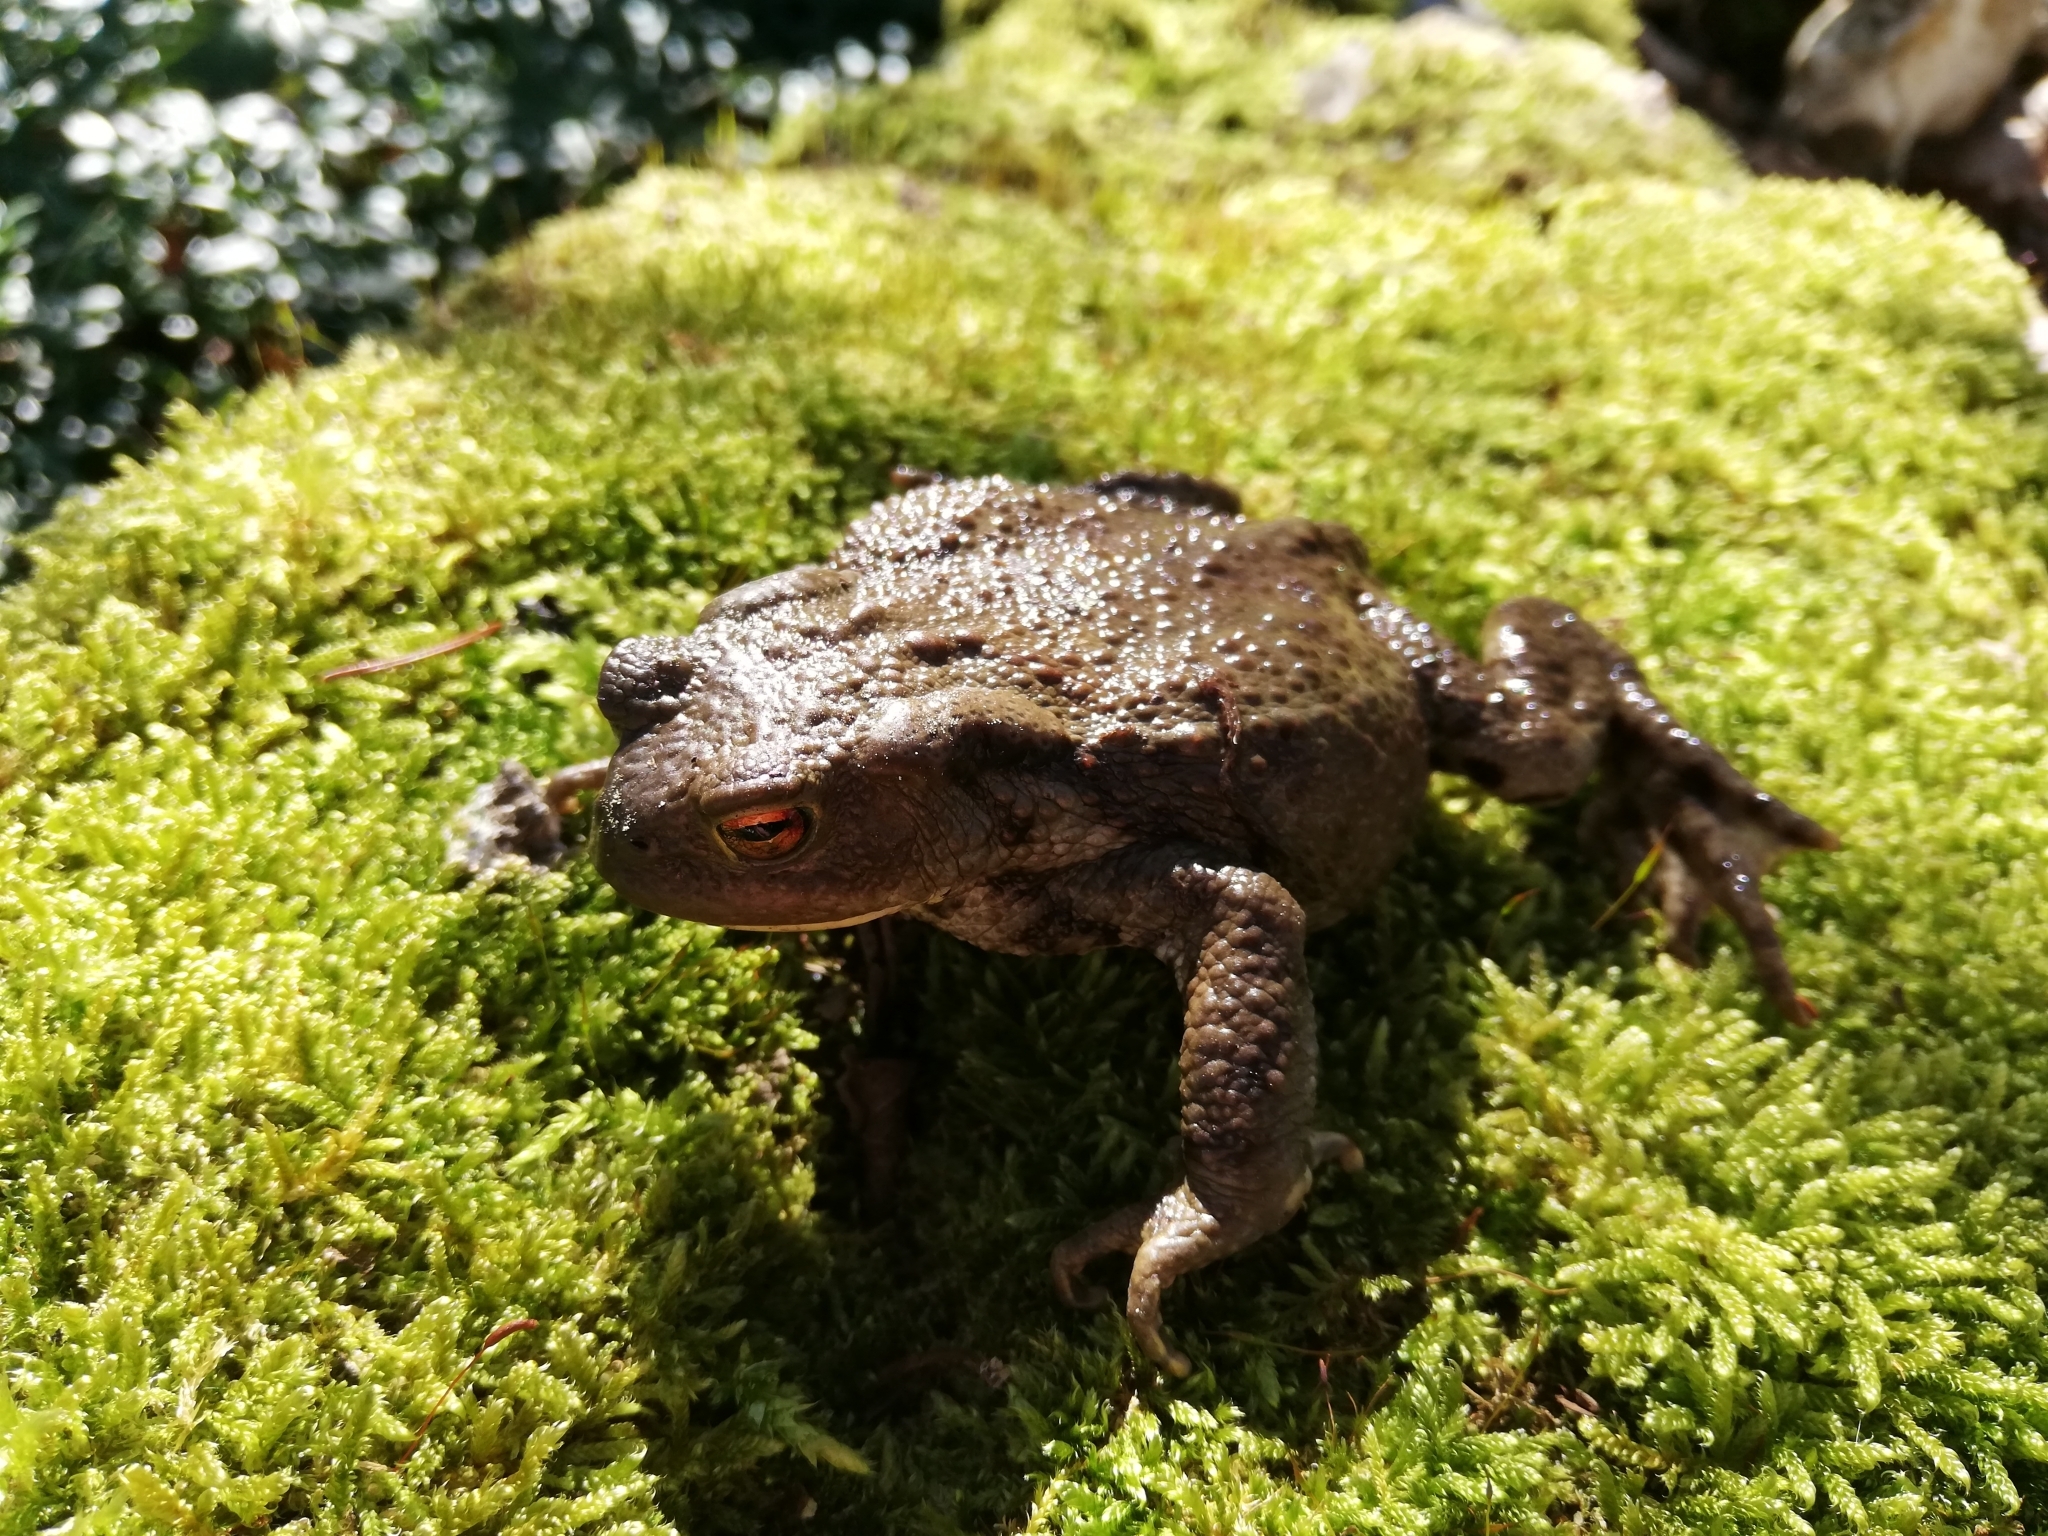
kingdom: Animalia
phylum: Chordata
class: Amphibia
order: Anura
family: Bufonidae
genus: Bufo
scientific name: Bufo bufo
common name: Common toad
